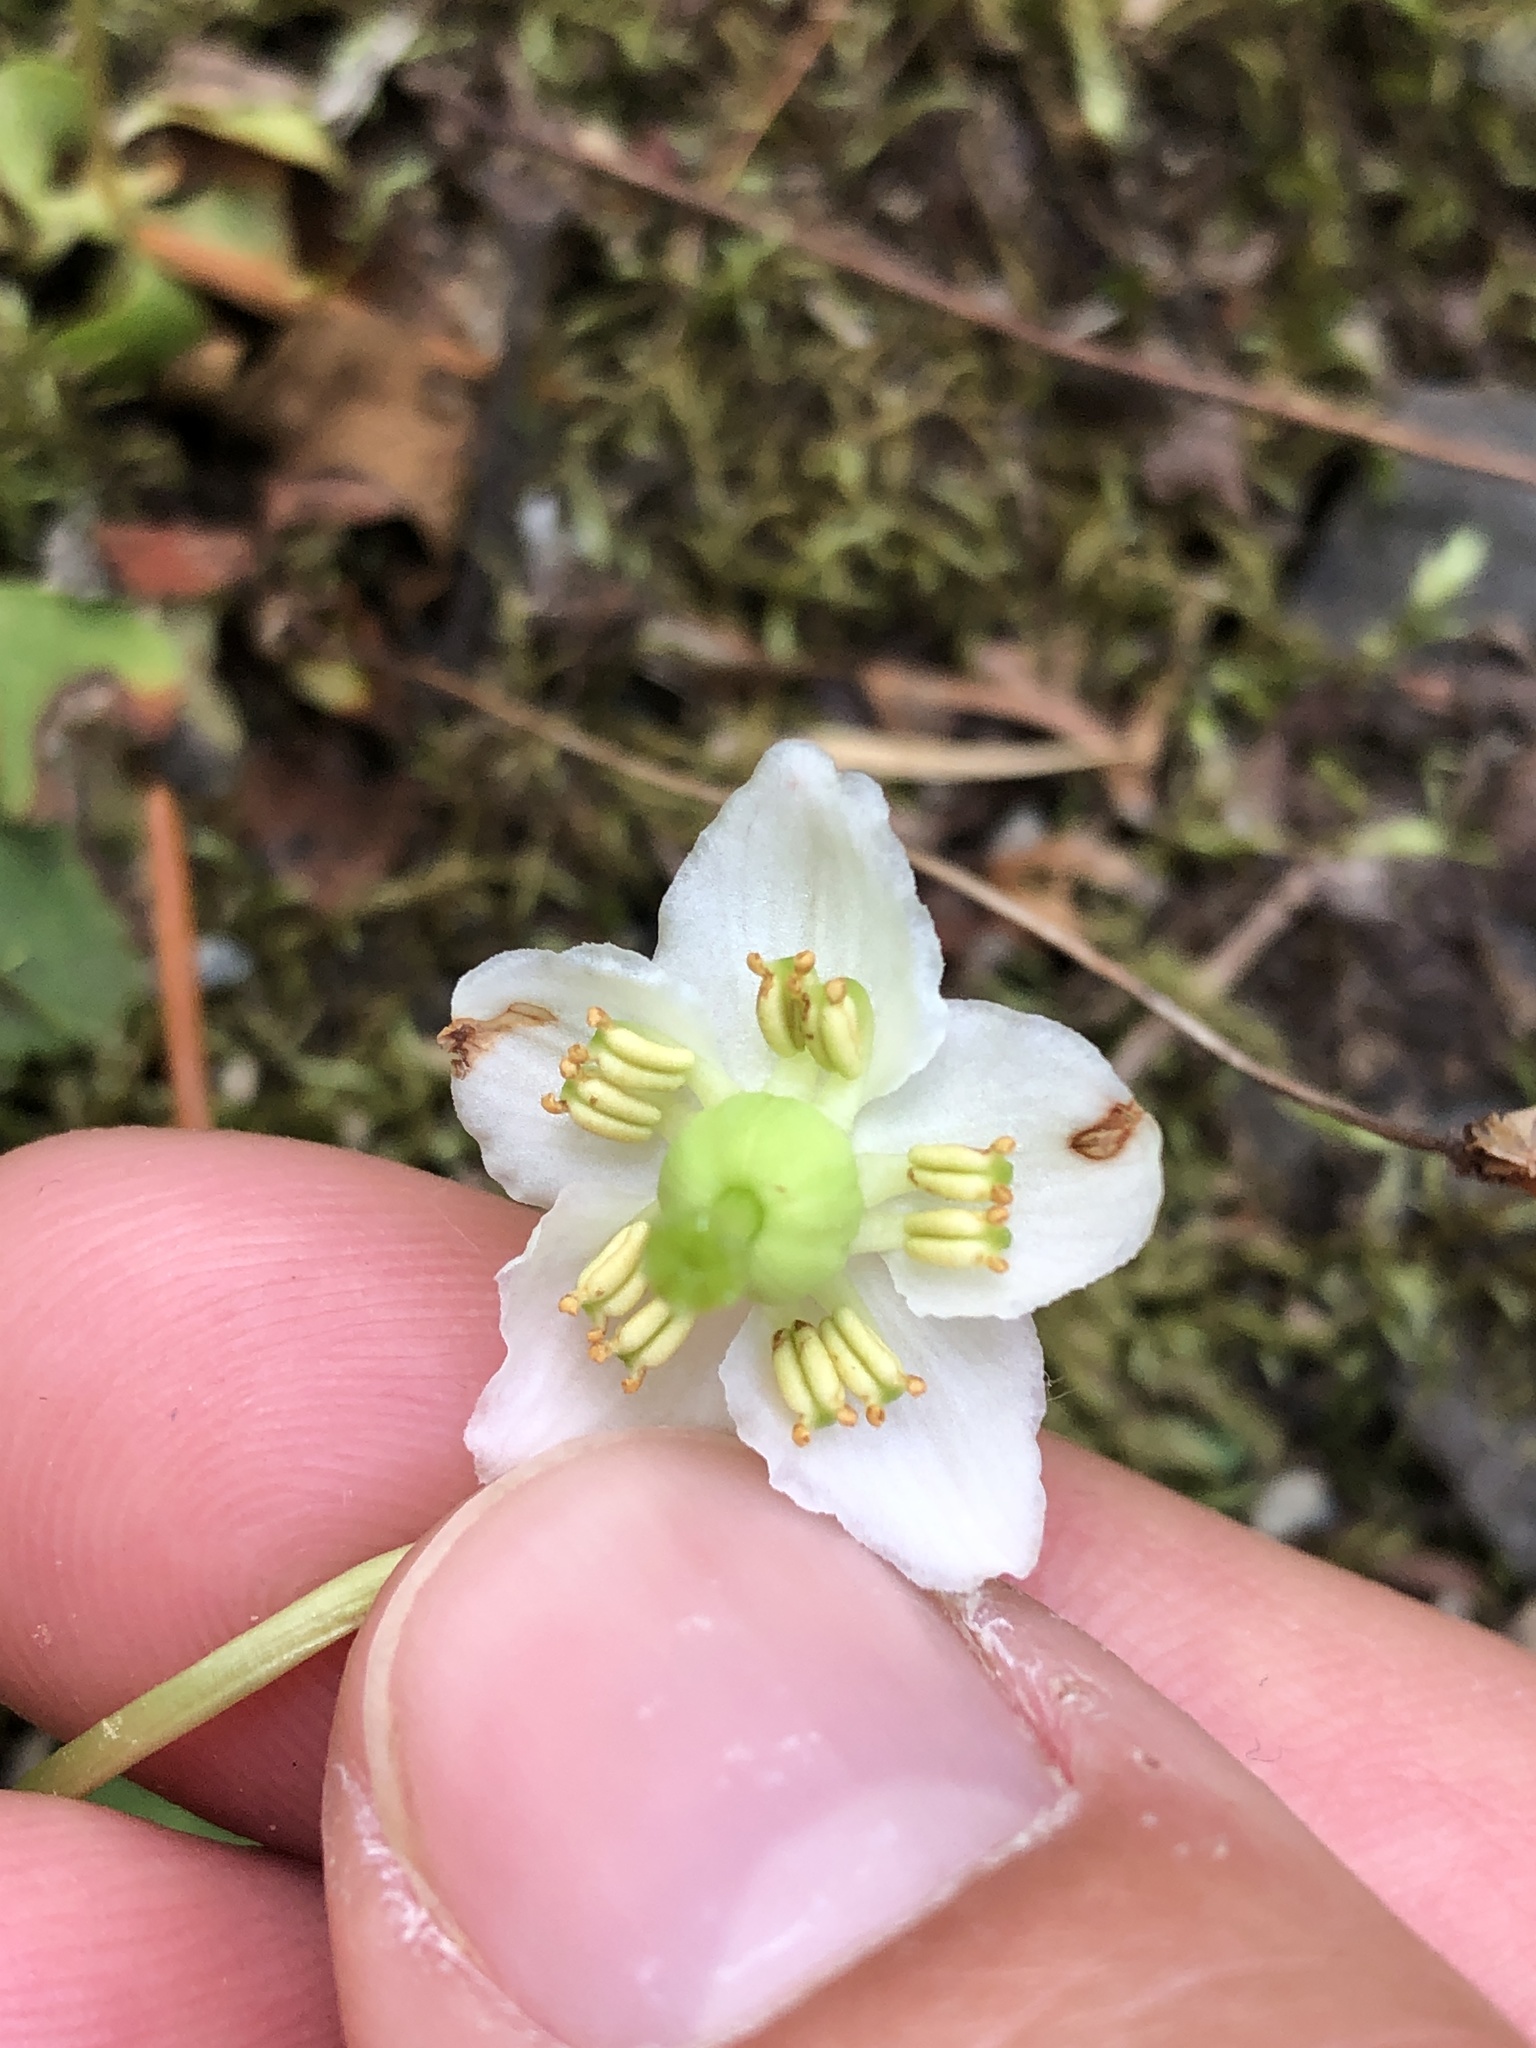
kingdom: Plantae
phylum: Tracheophyta
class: Magnoliopsida
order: Ericales
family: Ericaceae
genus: Moneses
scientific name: Moneses uniflora
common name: One-flowered wintergreen
